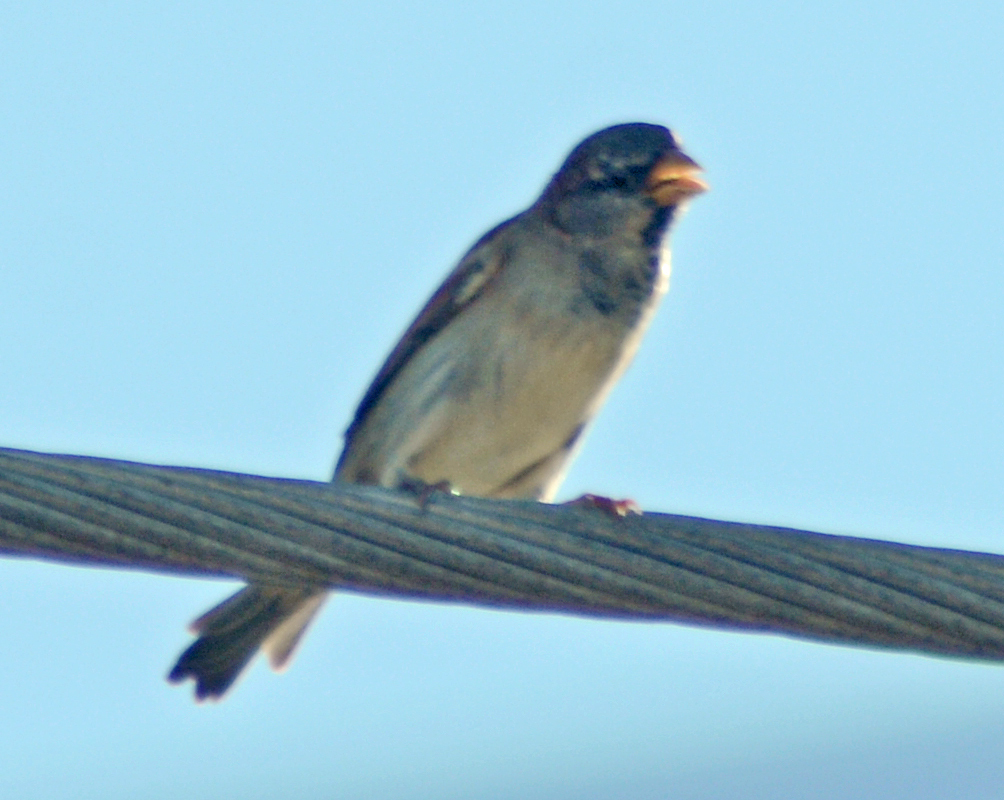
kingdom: Animalia
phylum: Chordata
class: Aves
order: Passeriformes
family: Passeridae
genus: Passer
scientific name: Passer domesticus
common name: House sparrow
